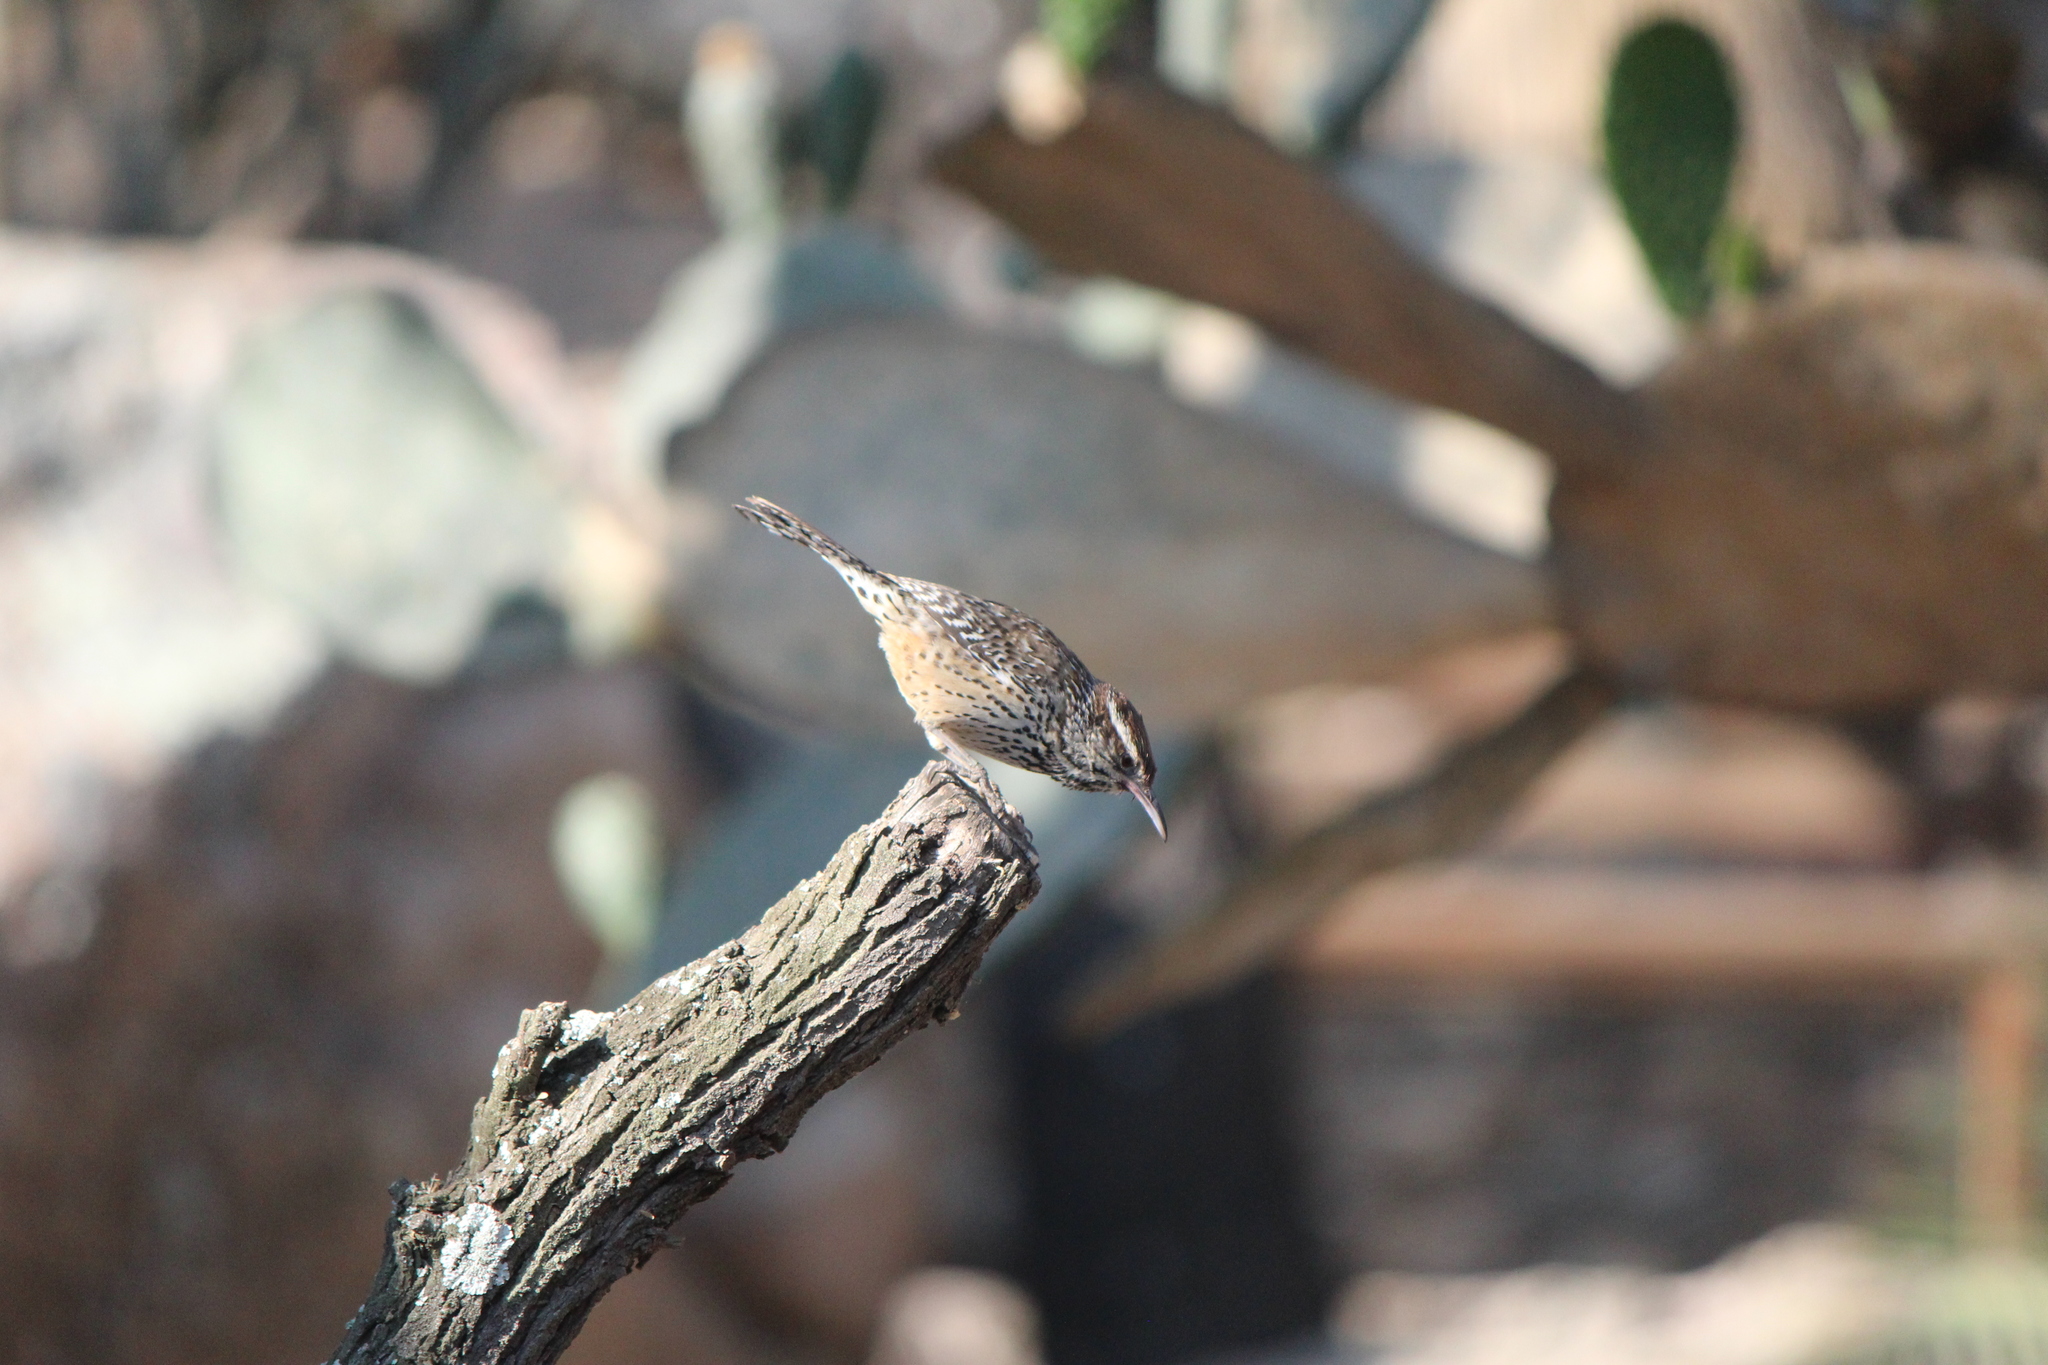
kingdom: Animalia
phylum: Chordata
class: Aves
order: Passeriformes
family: Troglodytidae
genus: Campylorhynchus
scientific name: Campylorhynchus brunneicapillus
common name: Cactus wren
